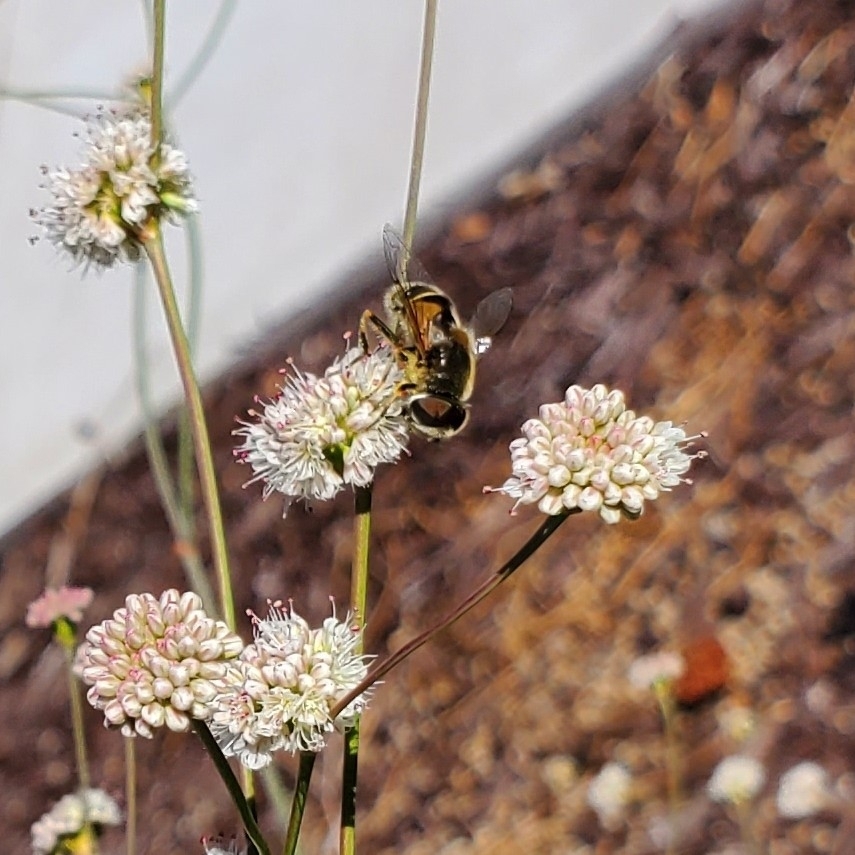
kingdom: Animalia
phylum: Arthropoda
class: Insecta
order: Diptera
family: Syrphidae
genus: Eristalis
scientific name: Eristalis hirta
